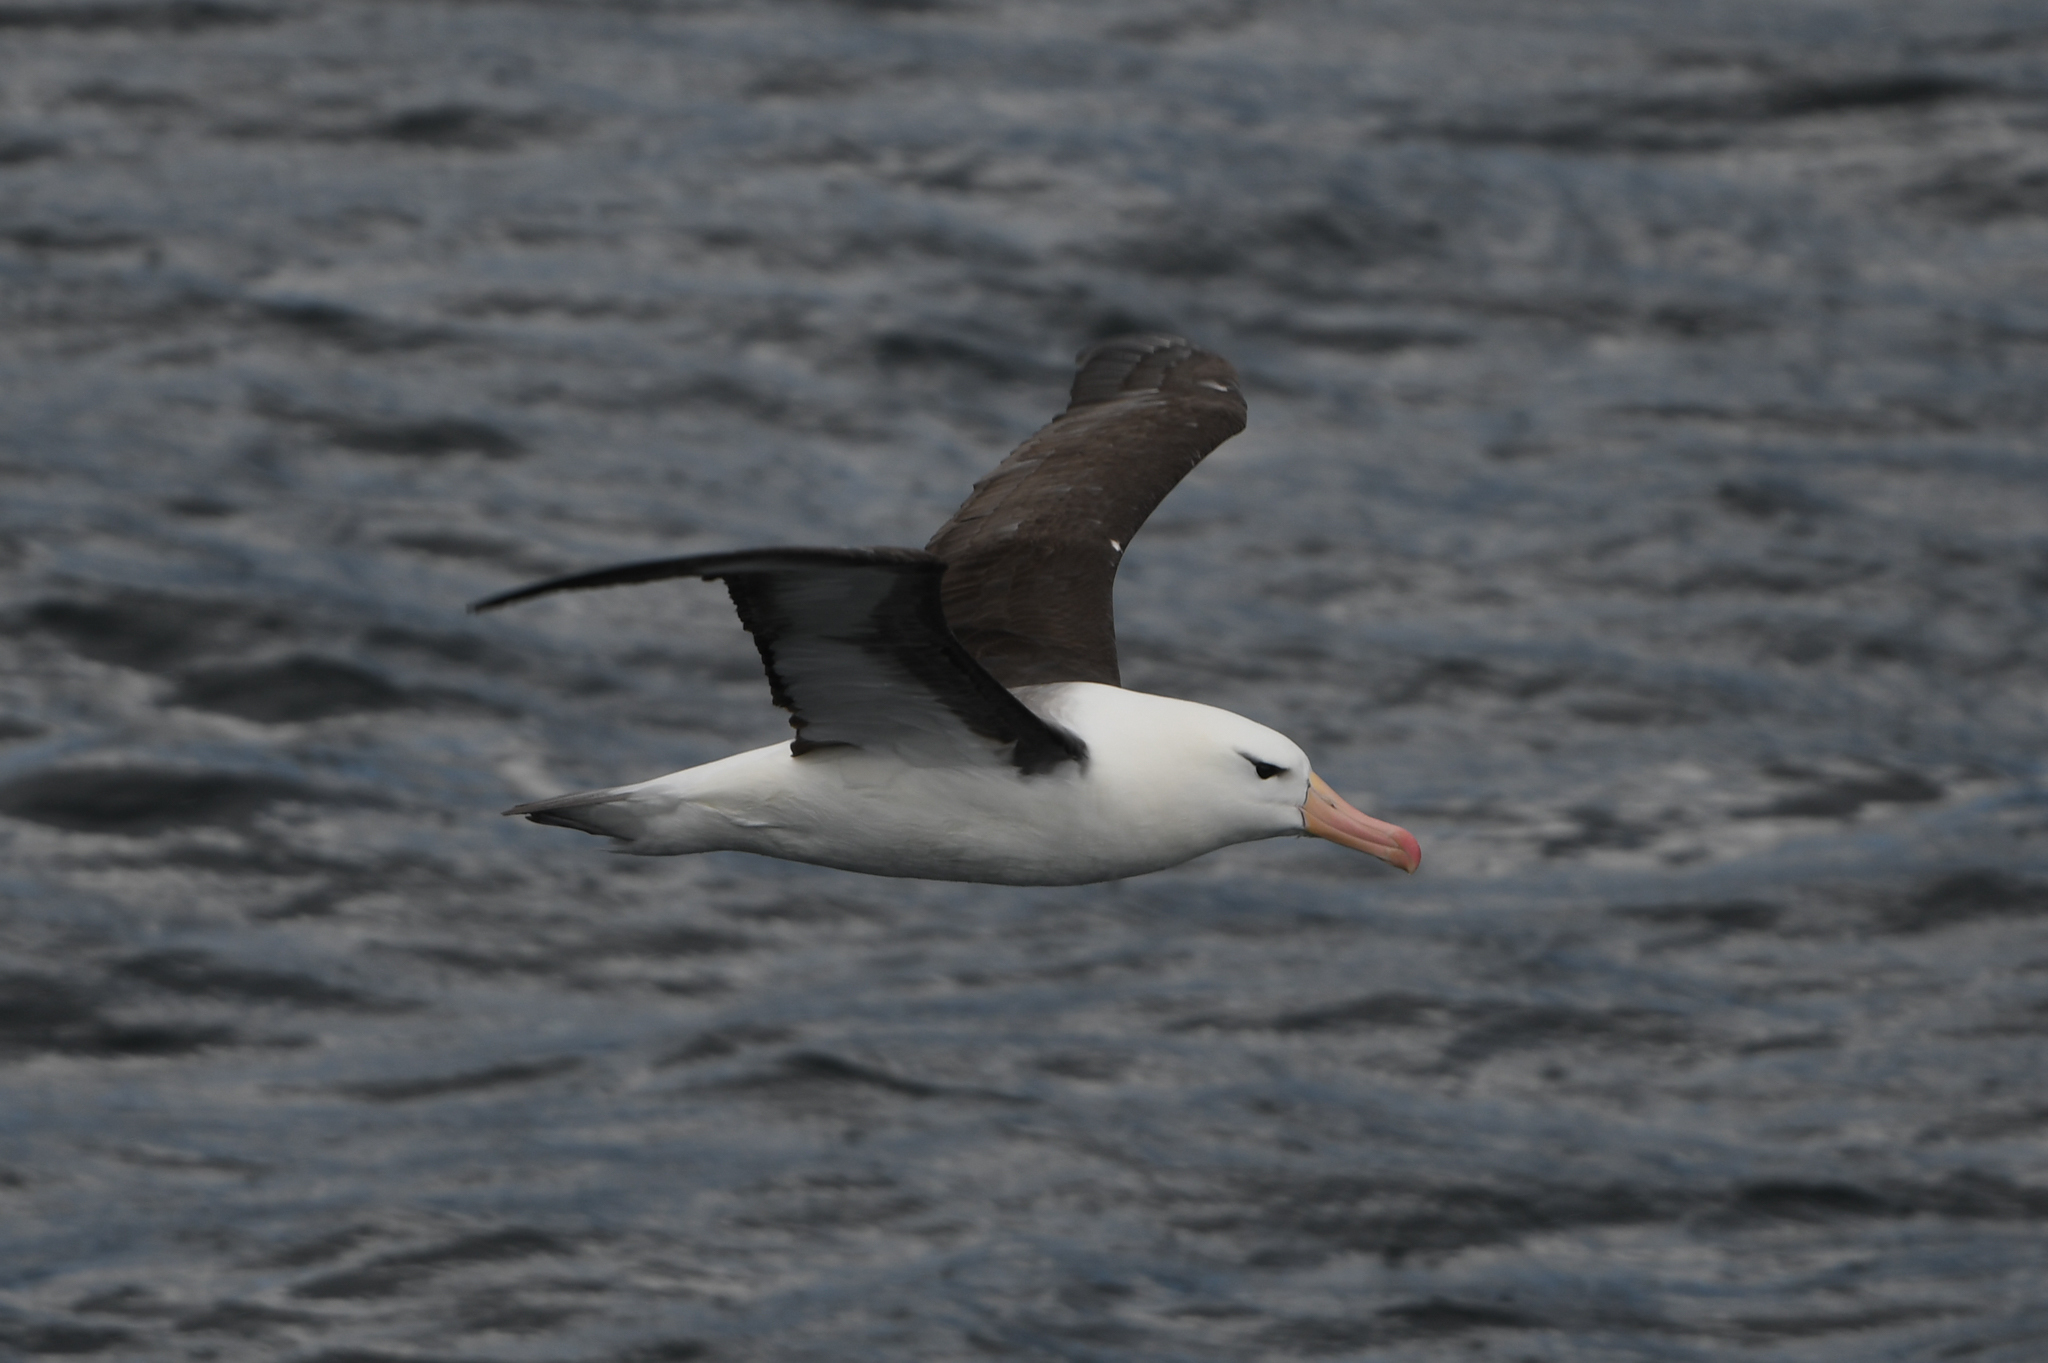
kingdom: Animalia
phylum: Chordata
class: Aves
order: Procellariiformes
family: Diomedeidae
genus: Thalassarche
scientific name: Thalassarche melanophris
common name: Black-browed albatross
